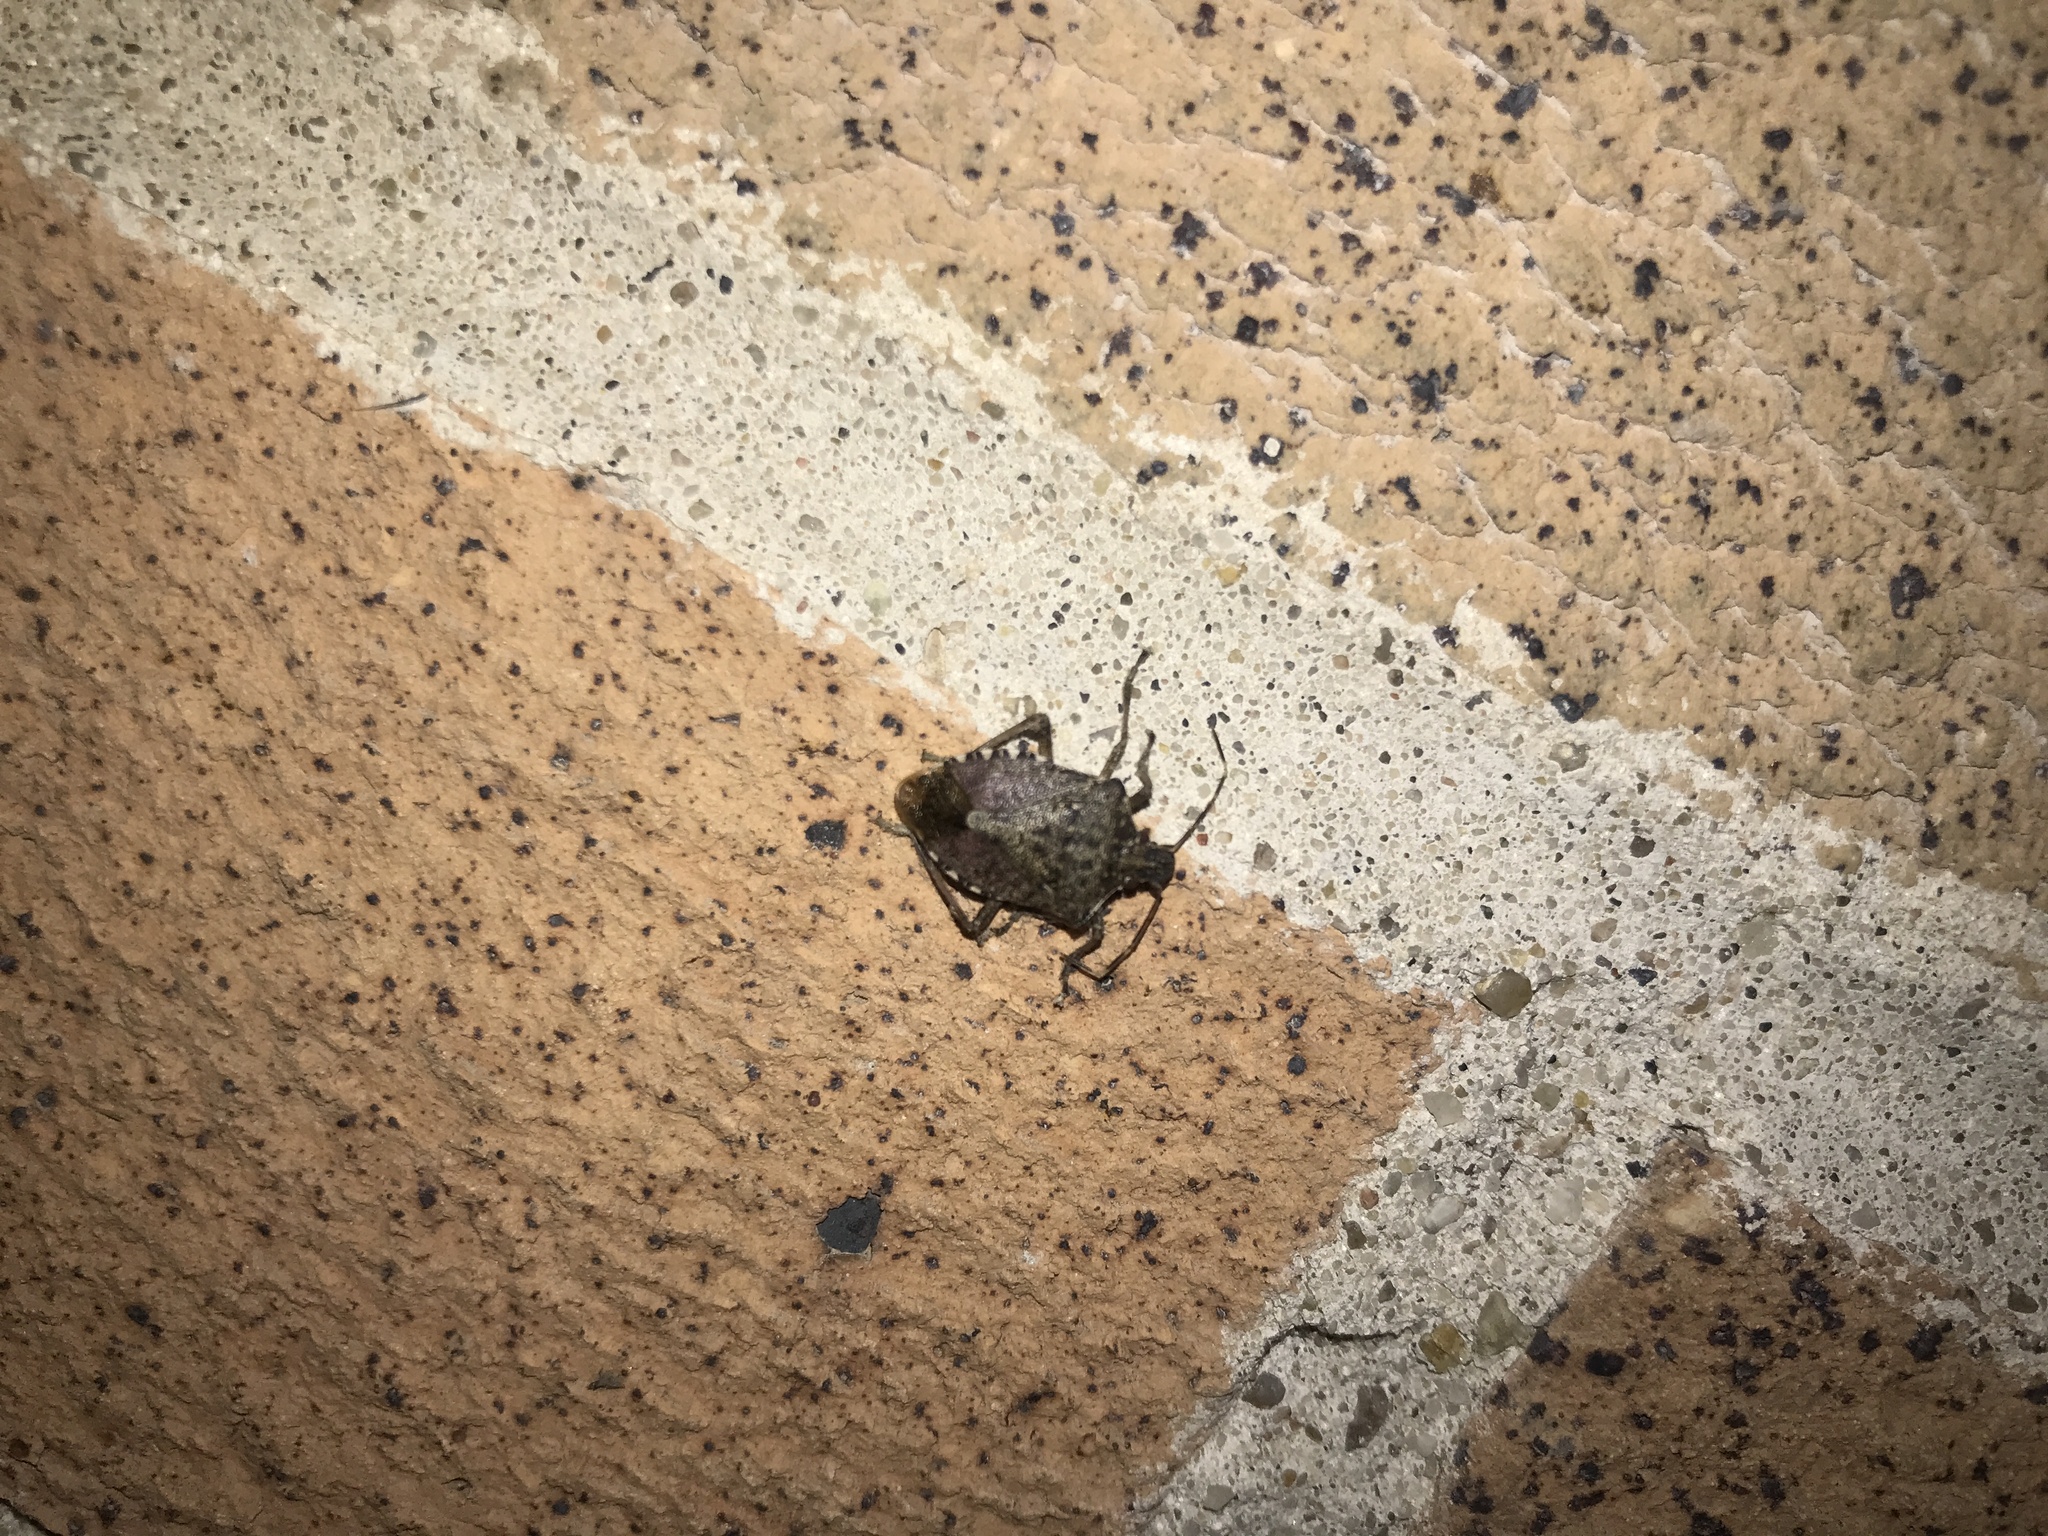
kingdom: Animalia
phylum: Arthropoda
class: Insecta
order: Hemiptera
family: Pentatomidae
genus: Halyomorpha
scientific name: Halyomorpha halys
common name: Brown marmorated stink bug
